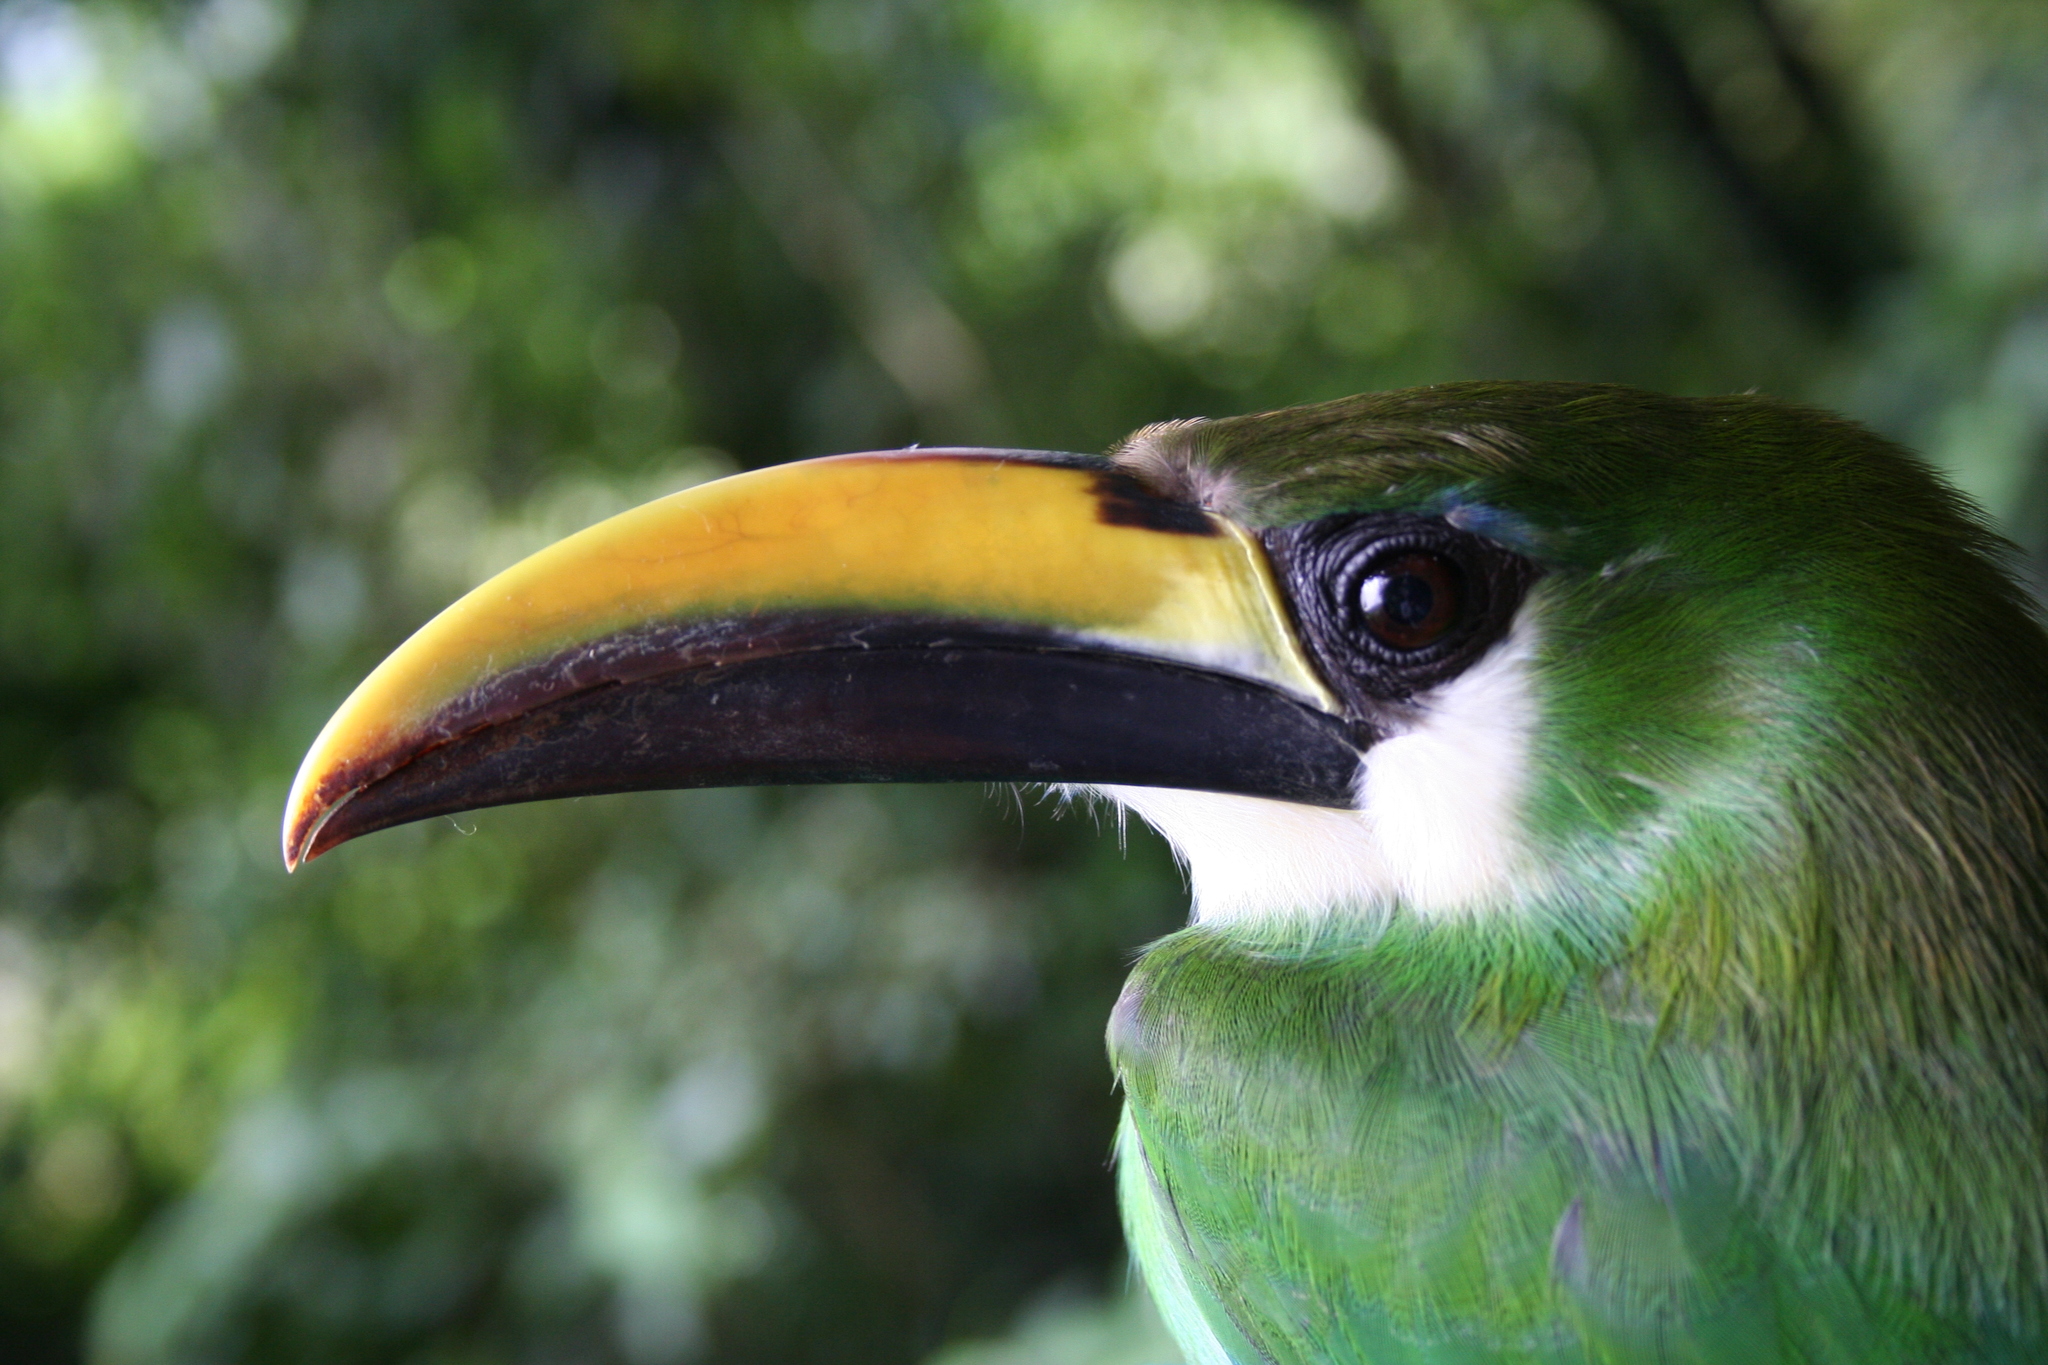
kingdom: Animalia
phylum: Chordata
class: Aves
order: Piciformes
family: Ramphastidae
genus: Aulacorhynchus
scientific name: Aulacorhynchus prasinus
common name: Emerald toucanet
